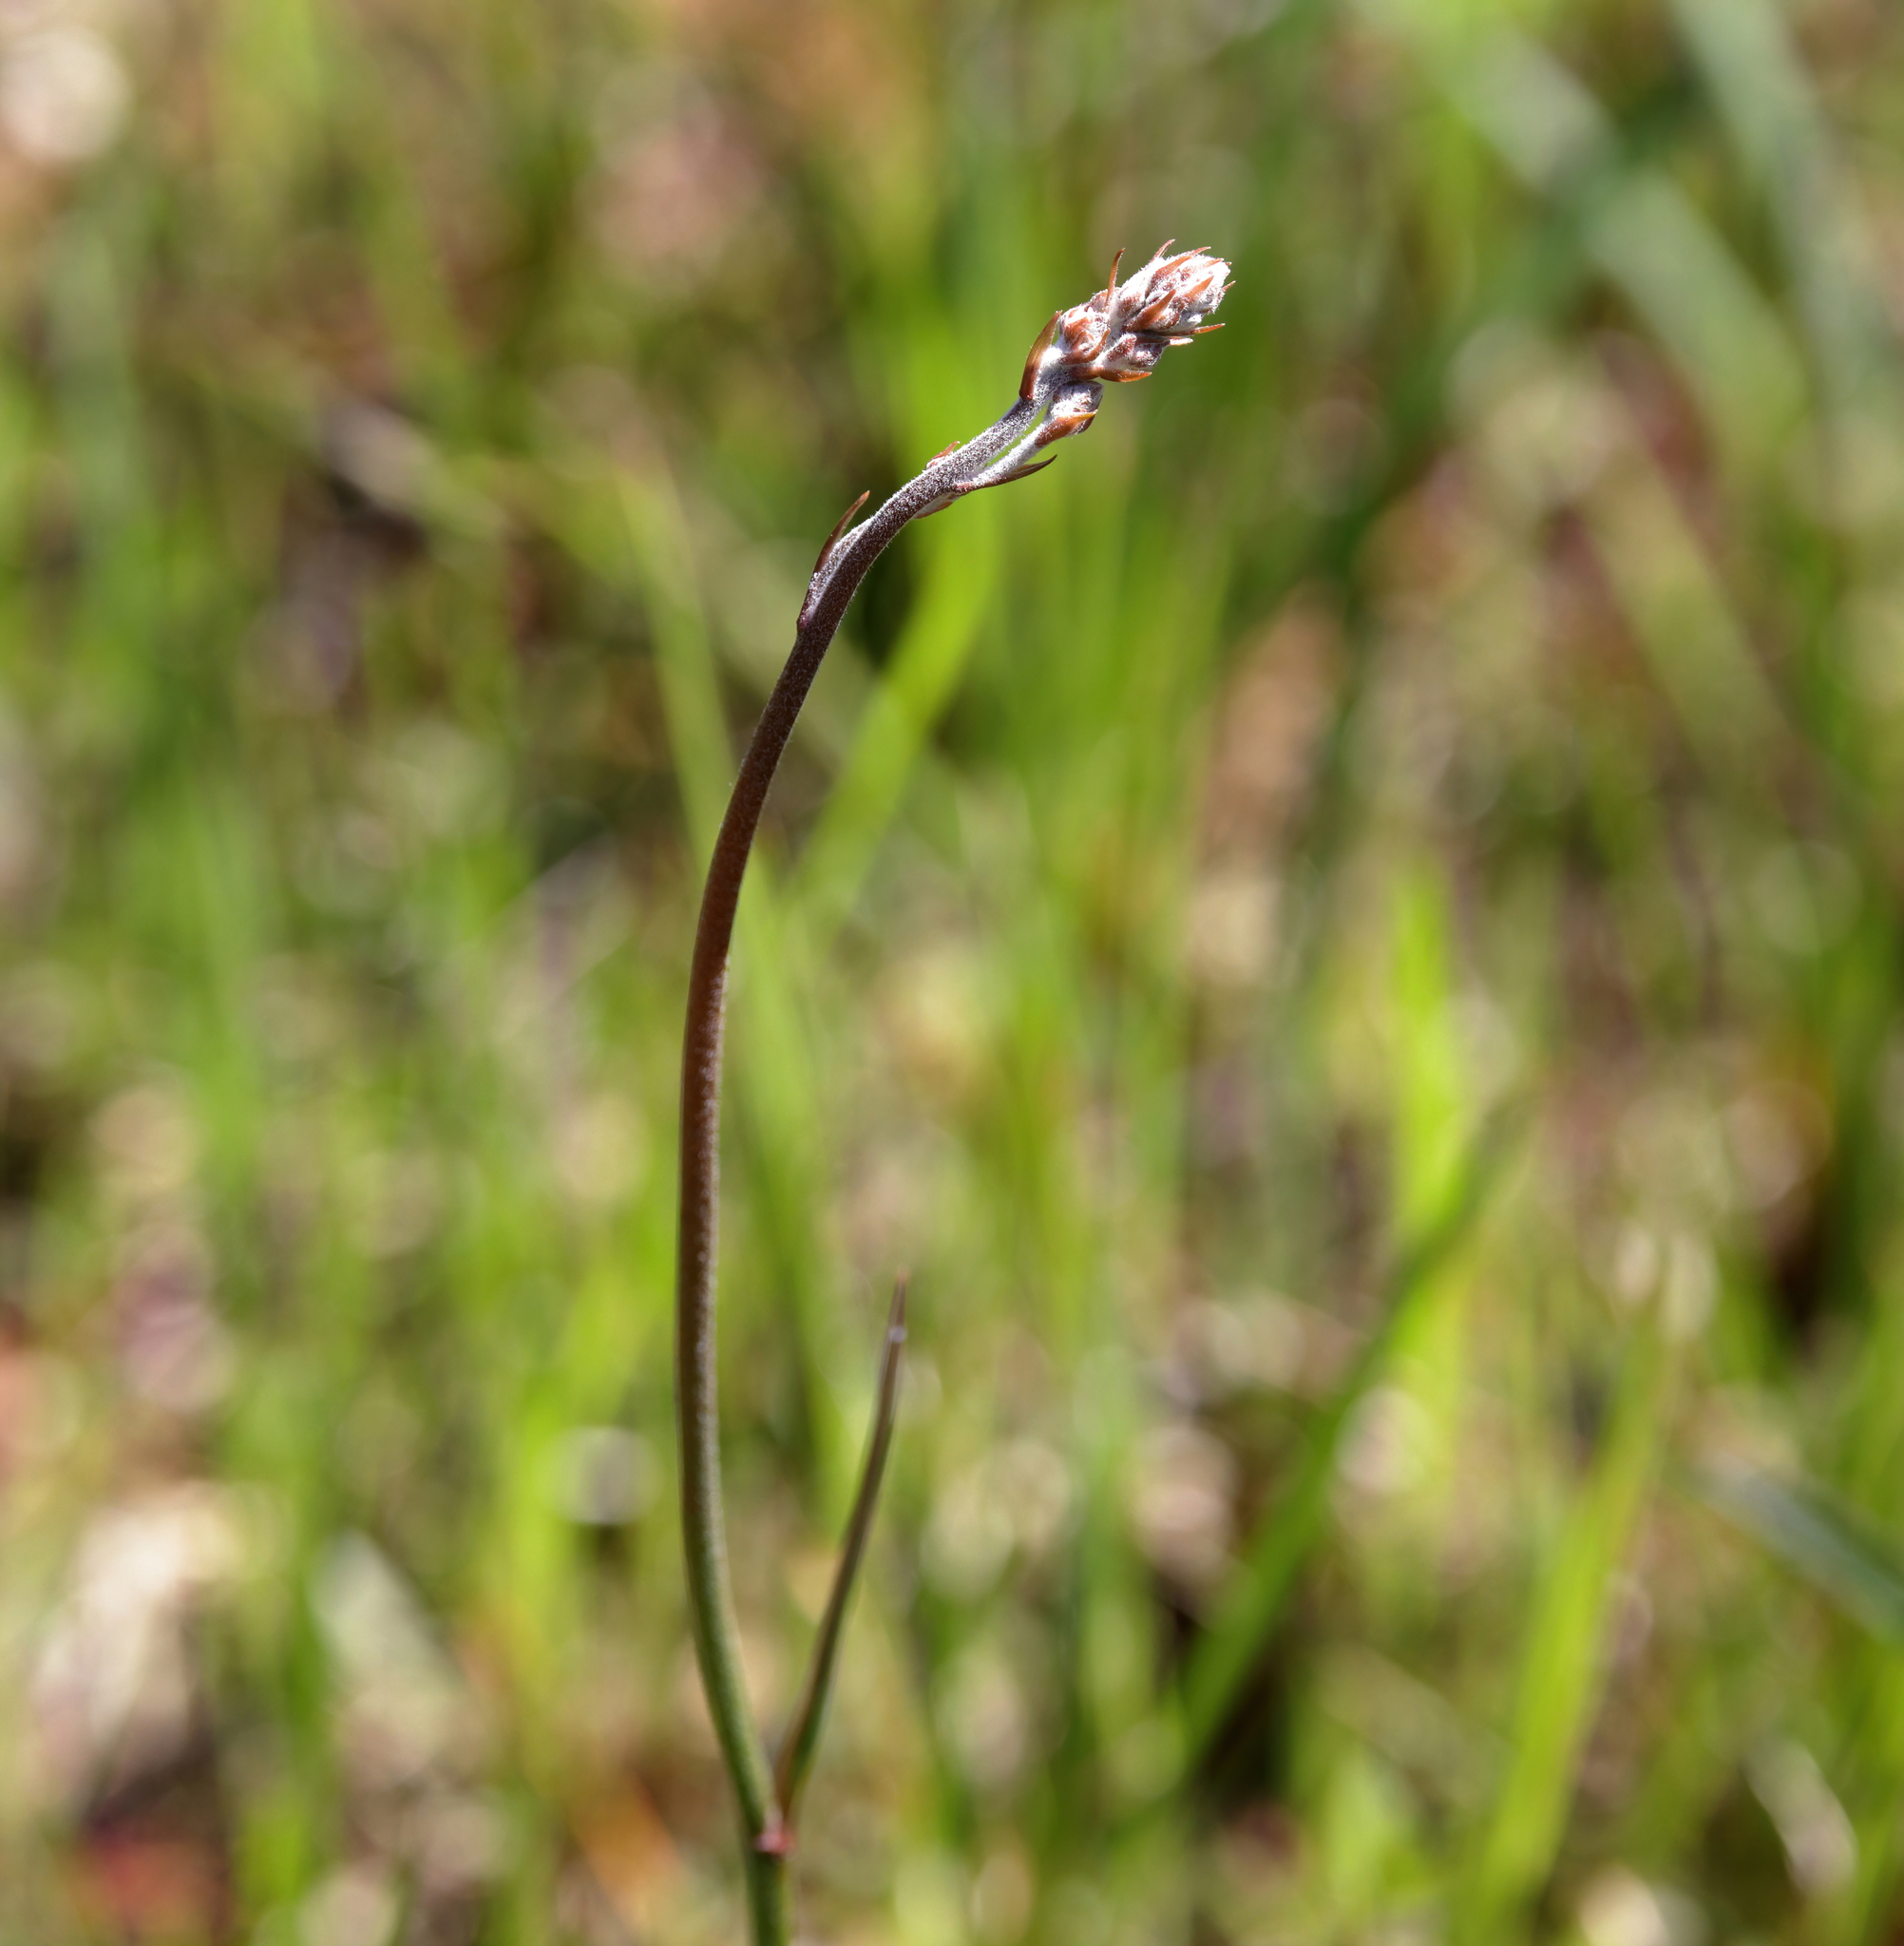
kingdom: Plantae
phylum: Tracheophyta
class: Liliopsida
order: Dioscoreales
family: Nartheciaceae
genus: Lophiola
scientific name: Lophiola aurea
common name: Golden-crest
